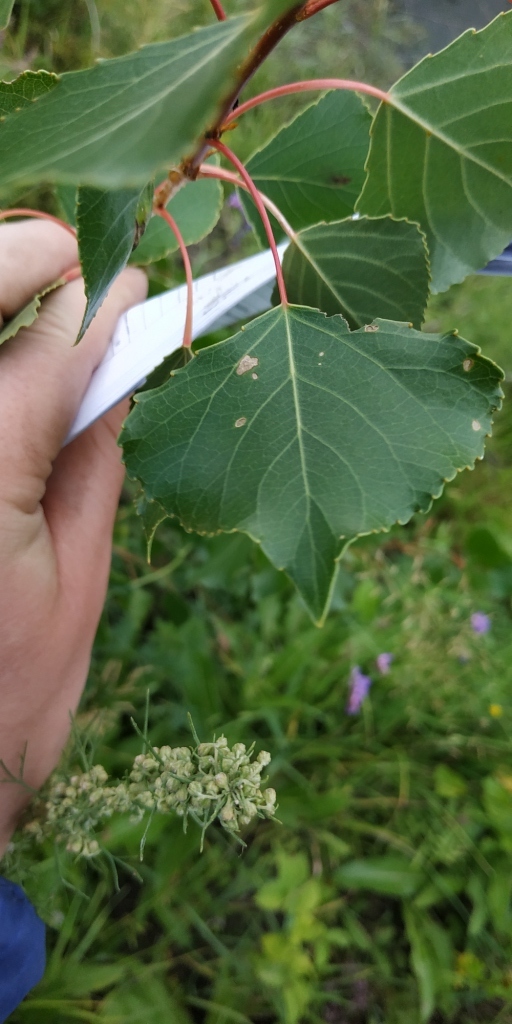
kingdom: Plantae
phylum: Tracheophyta
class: Magnoliopsida
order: Malpighiales
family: Salicaceae
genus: Populus
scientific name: Populus nigra
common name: Black poplar
